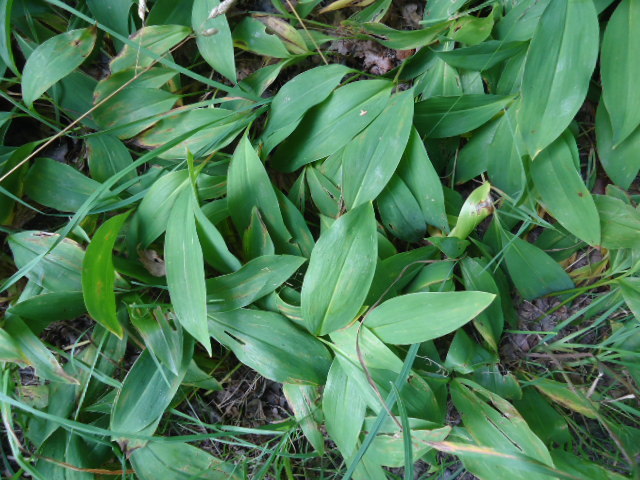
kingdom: Plantae
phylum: Tracheophyta
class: Liliopsida
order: Asparagales
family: Asparagaceae
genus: Convallaria
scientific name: Convallaria majalis
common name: Lily-of-the-valley
